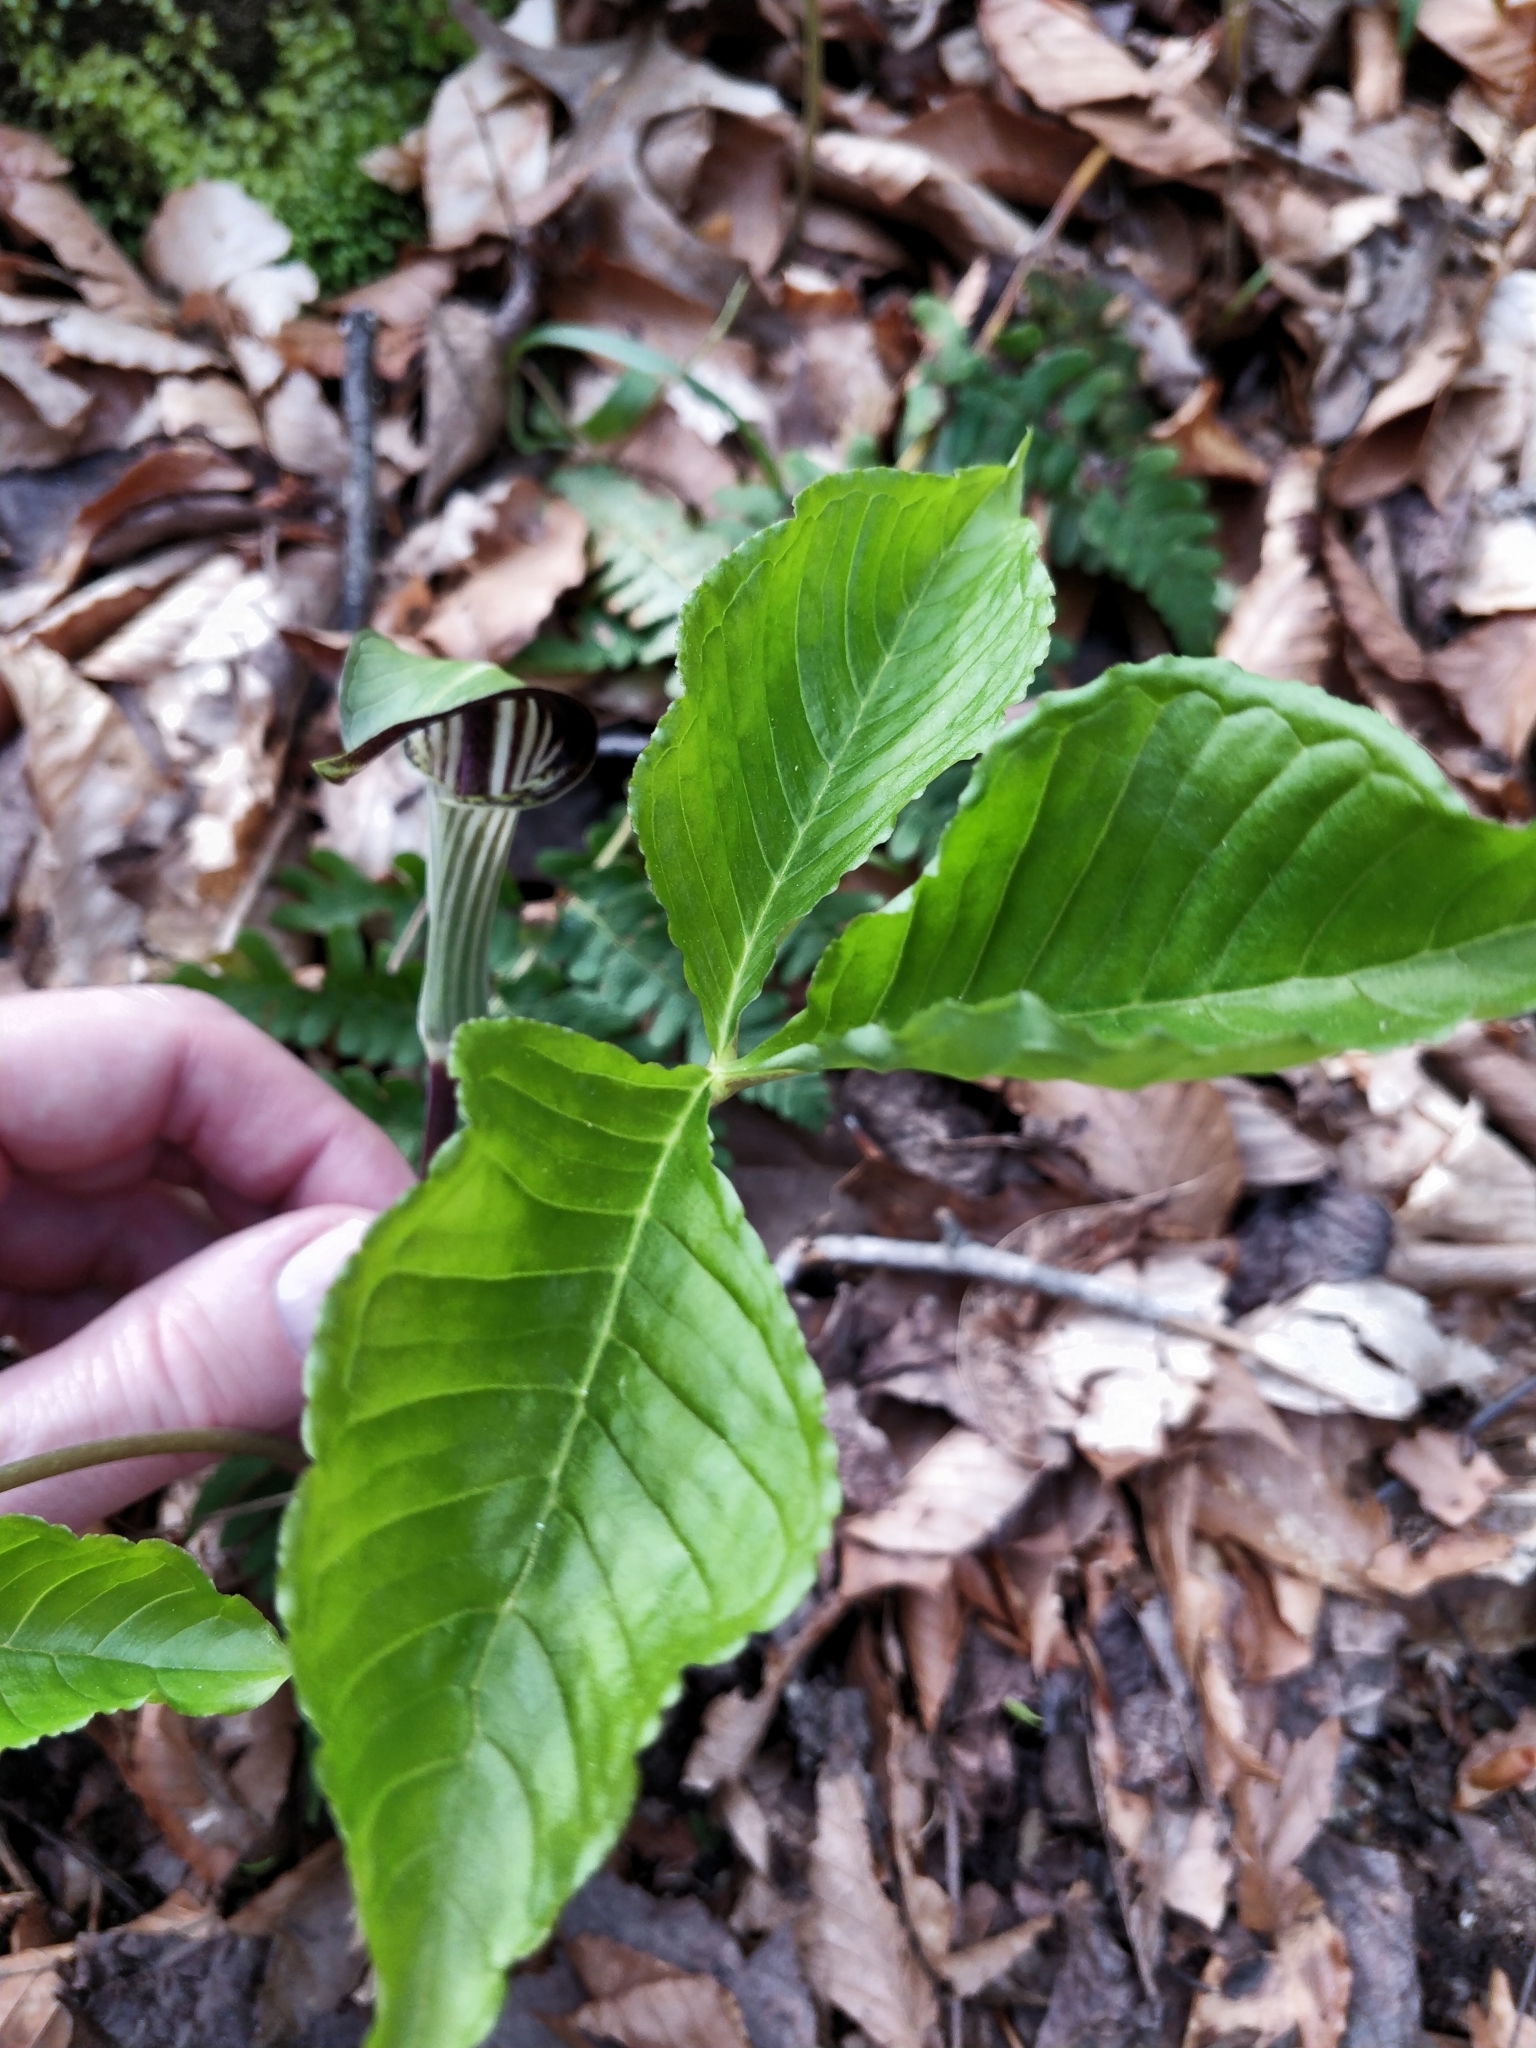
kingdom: Plantae
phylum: Tracheophyta
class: Liliopsida
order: Alismatales
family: Araceae
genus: Arisaema
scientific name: Arisaema triphyllum
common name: Jack-in-the-pulpit
